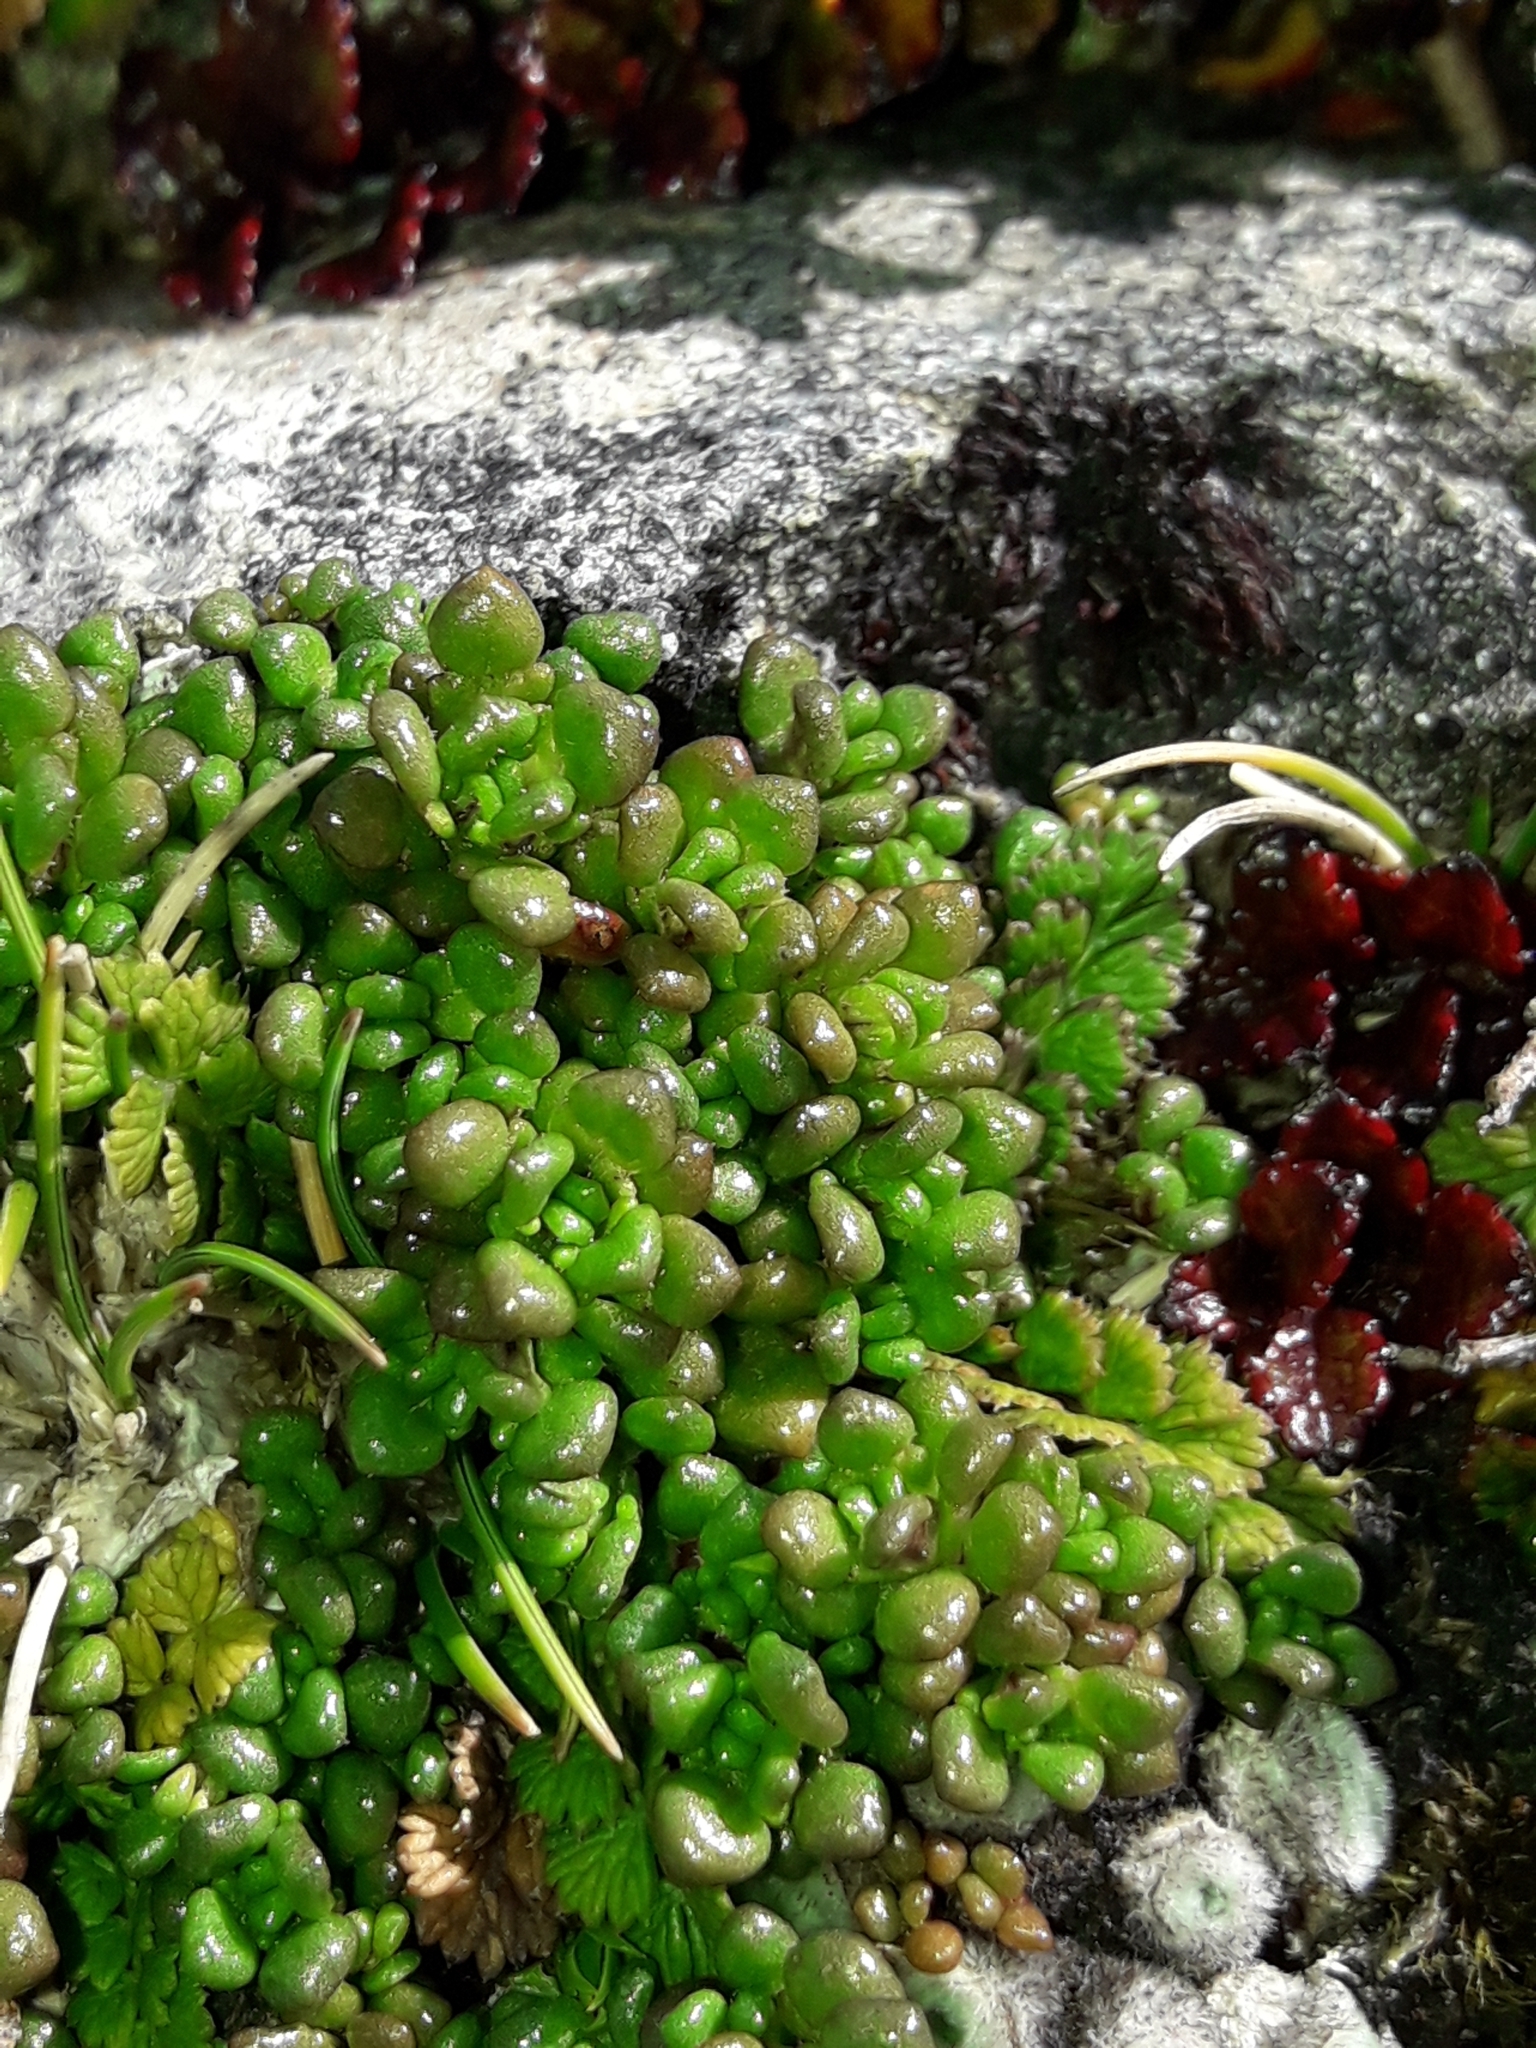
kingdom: Plantae
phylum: Tracheophyta
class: Magnoliopsida
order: Lamiales
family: Orobanchaceae
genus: Euphrasia
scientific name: Euphrasia revoluta
